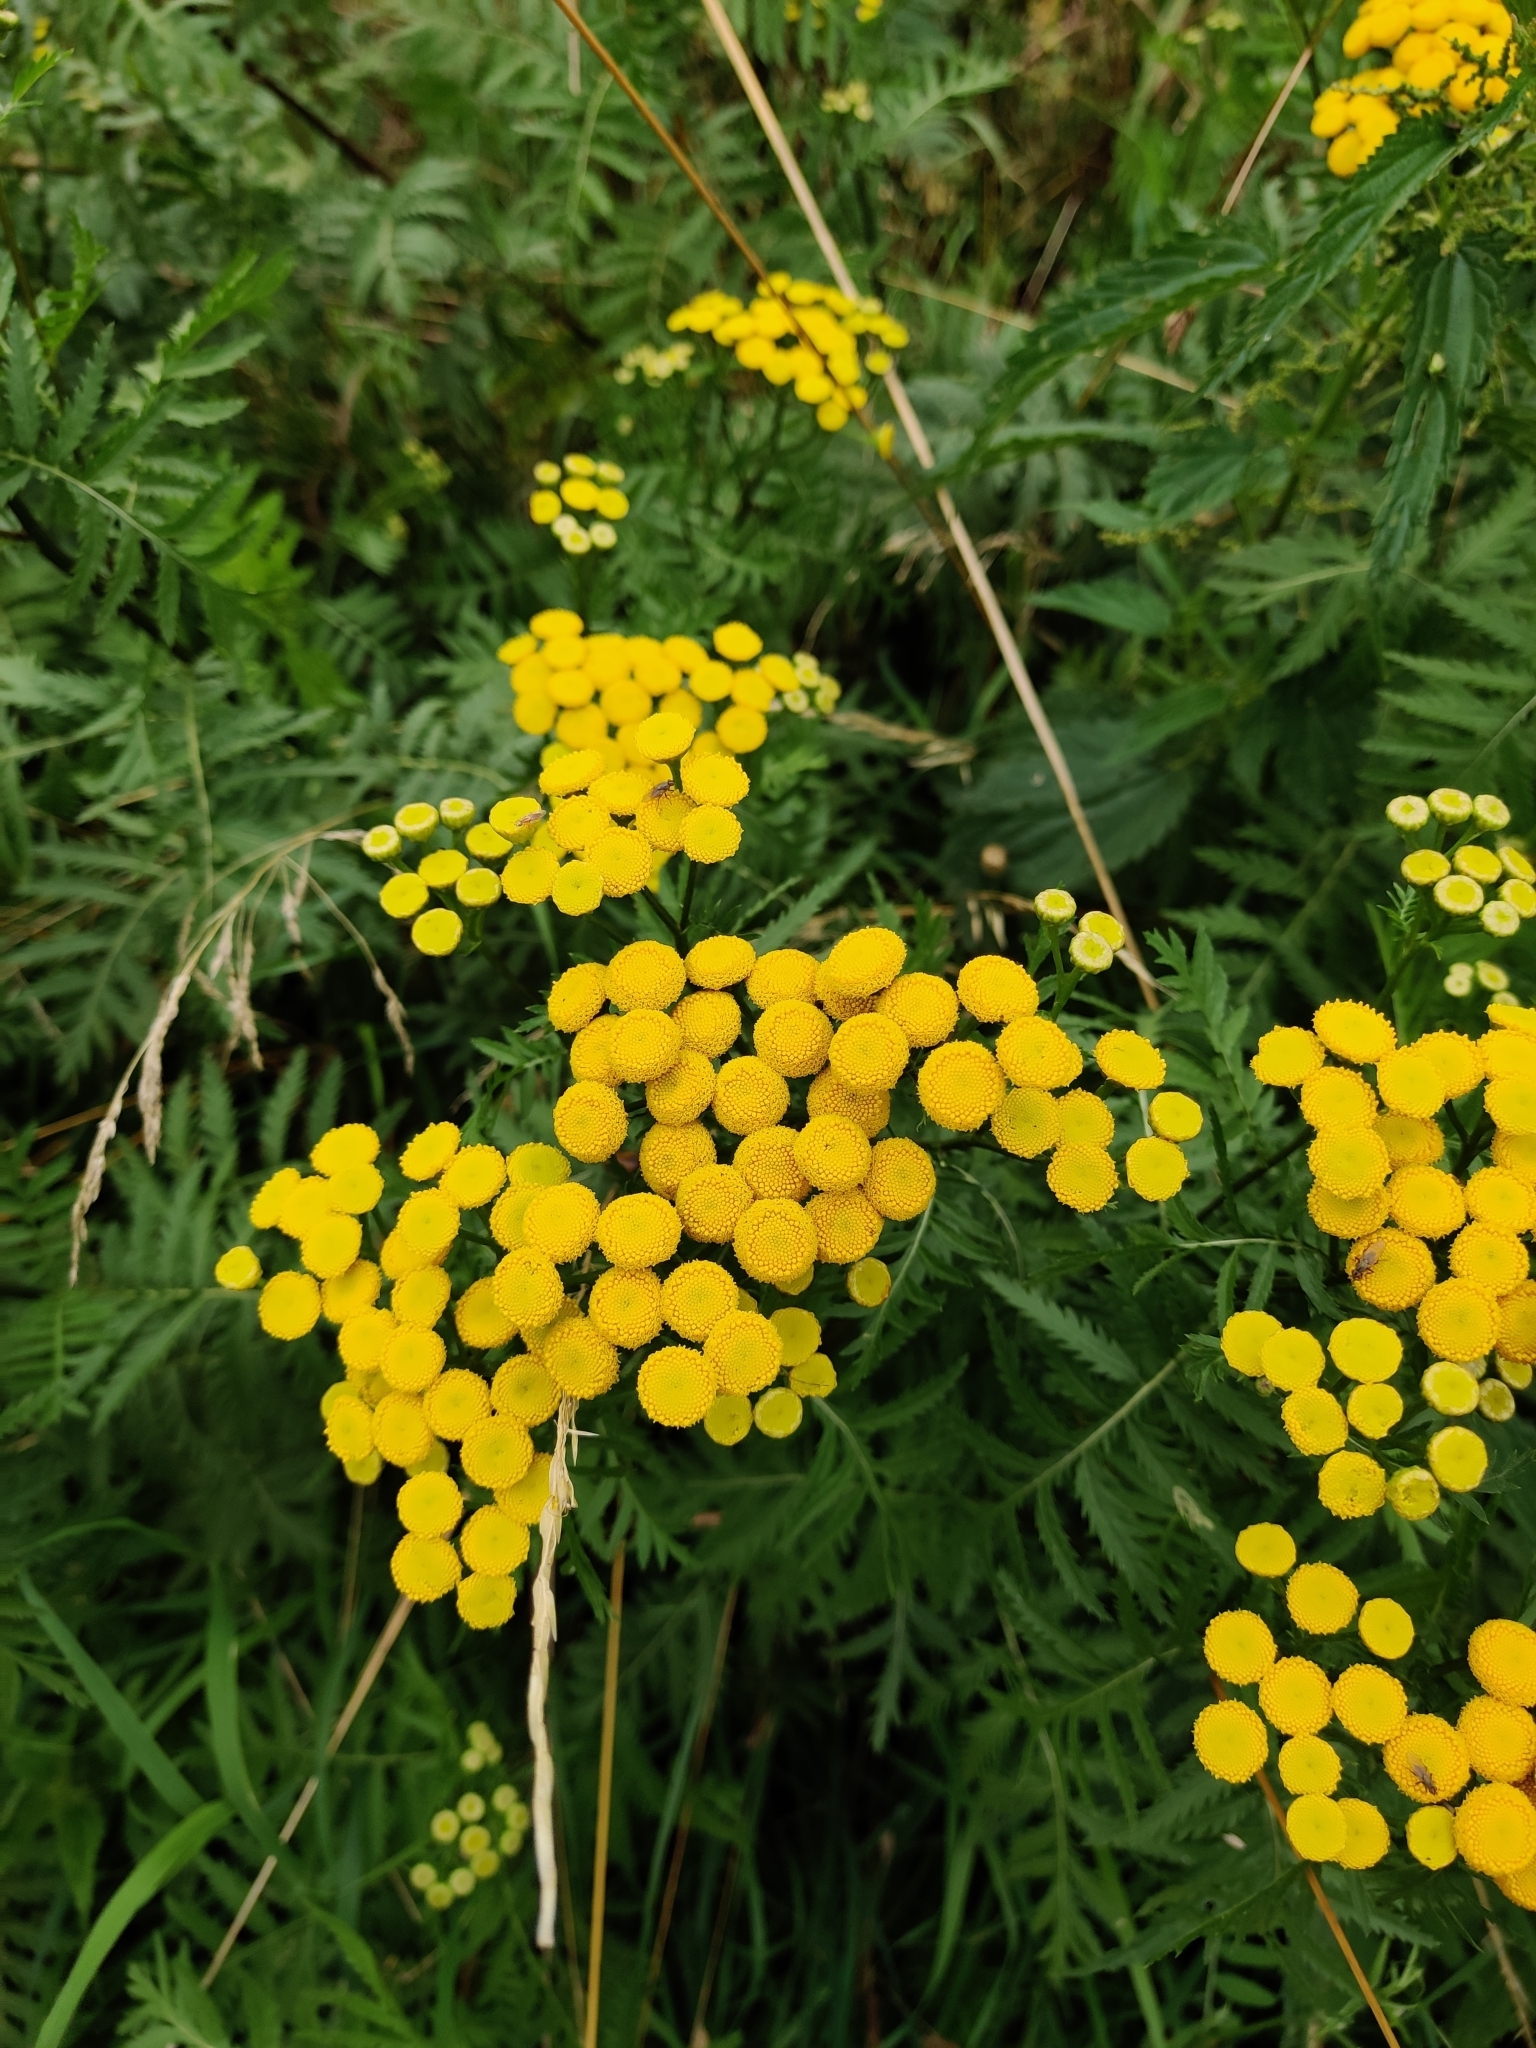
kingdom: Plantae
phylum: Tracheophyta
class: Magnoliopsida
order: Asterales
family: Asteraceae
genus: Tanacetum
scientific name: Tanacetum vulgare
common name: Common tansy
